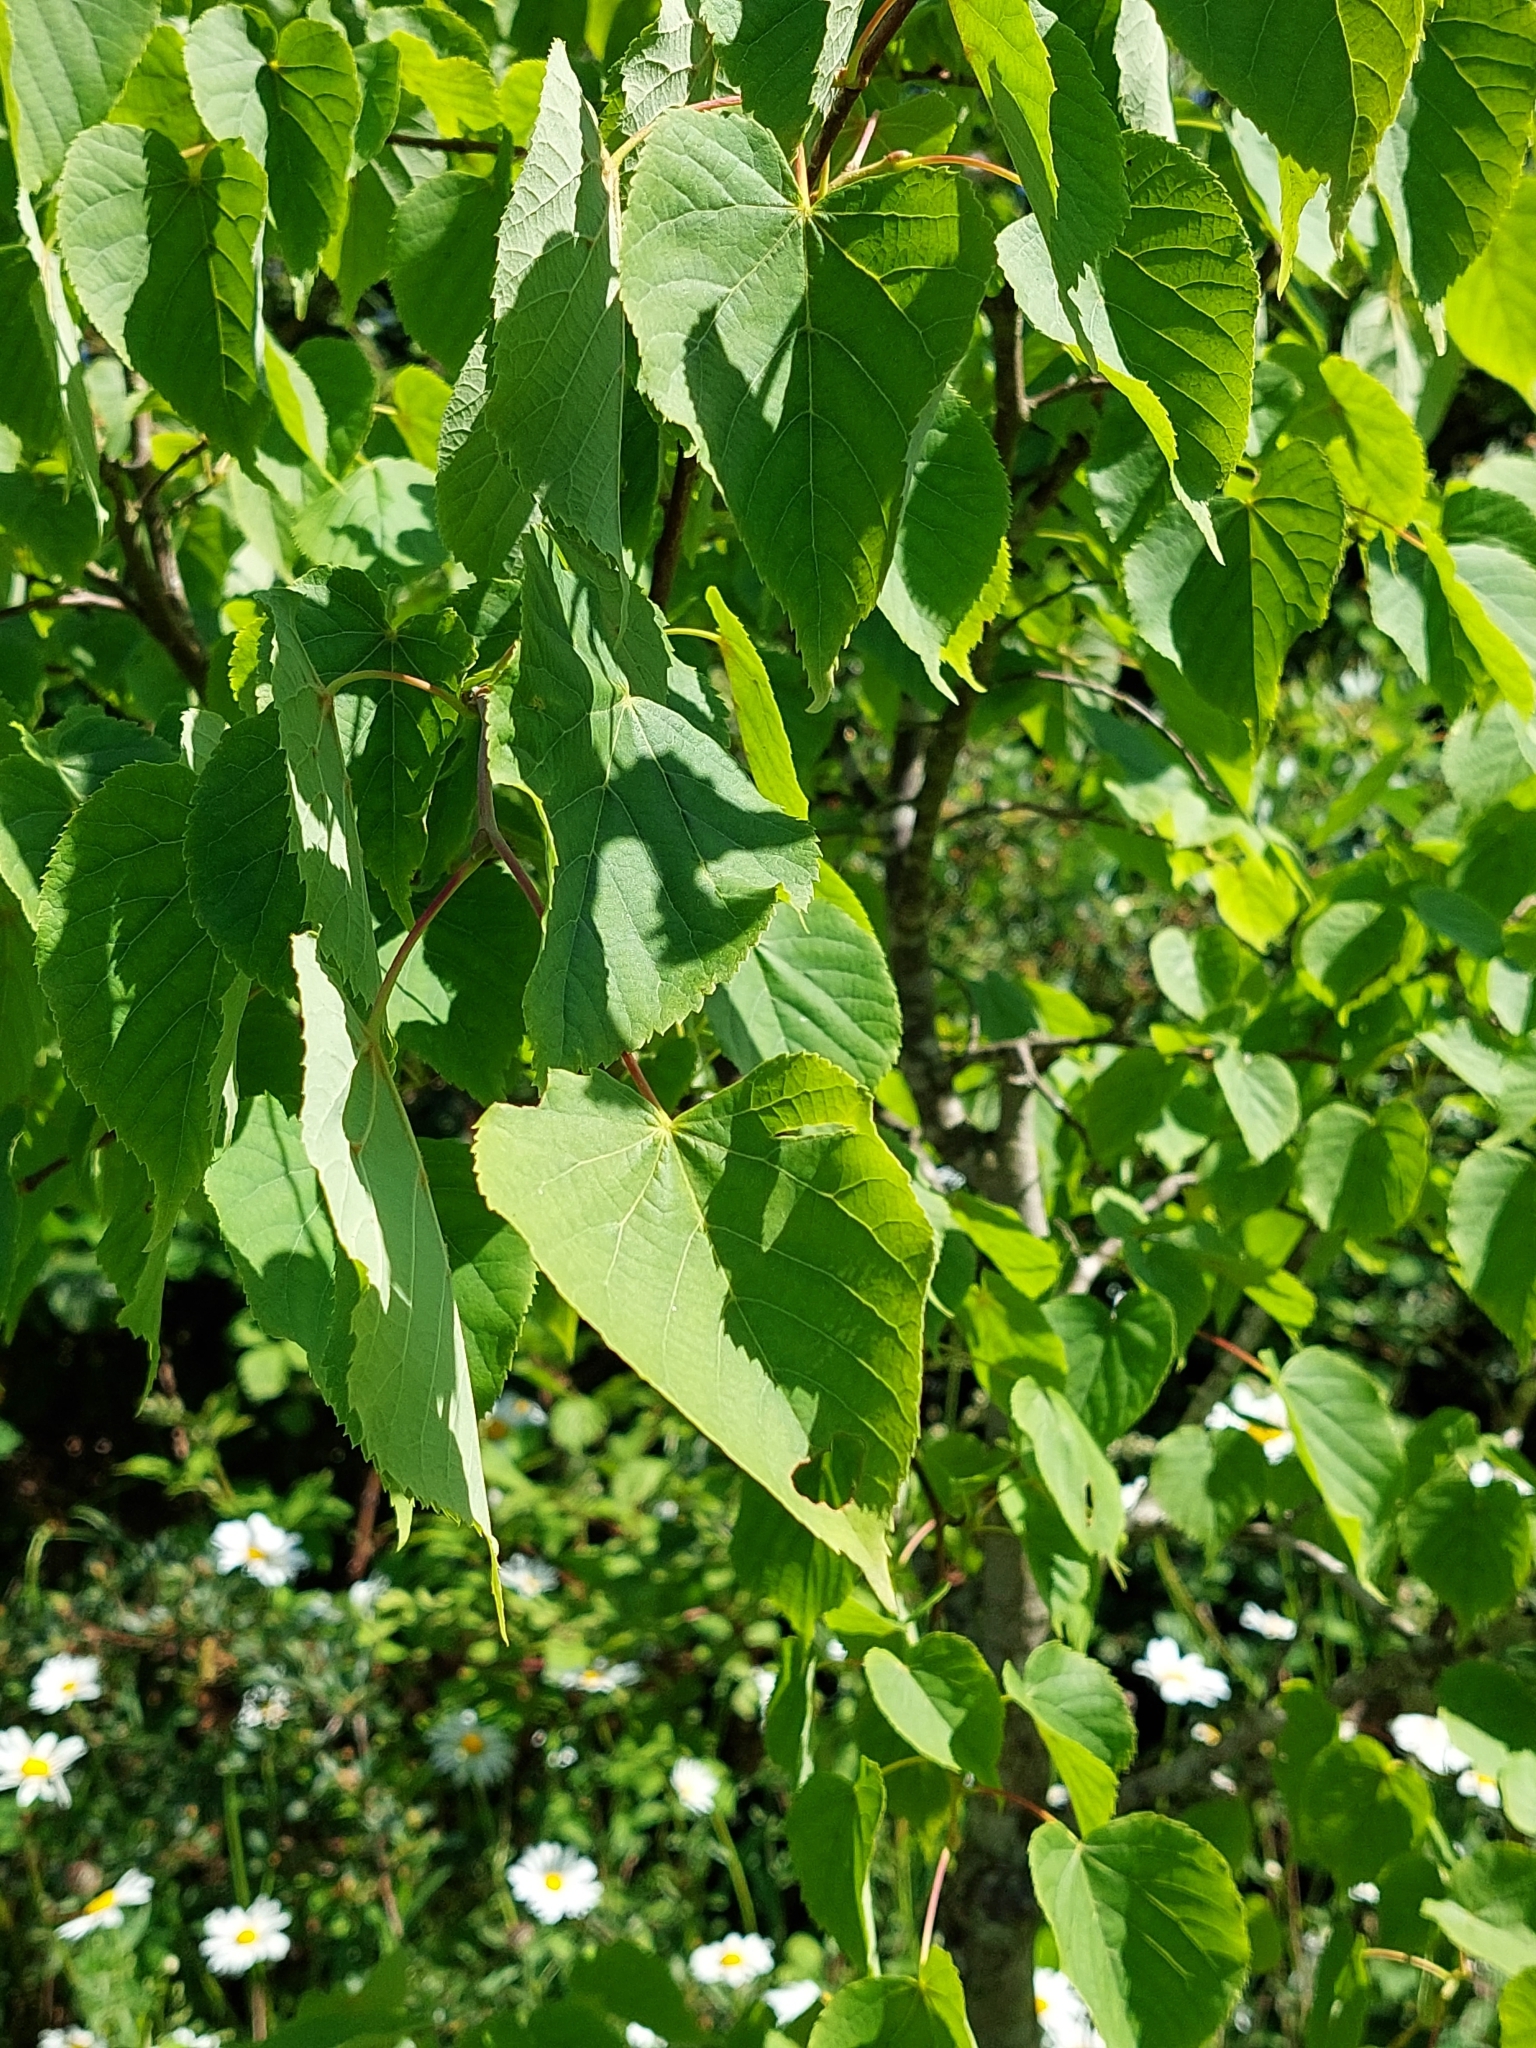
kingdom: Plantae
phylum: Tracheophyta
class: Magnoliopsida
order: Malvales
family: Malvaceae
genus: Tilia
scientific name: Tilia cordata
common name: Small-leaved lime
